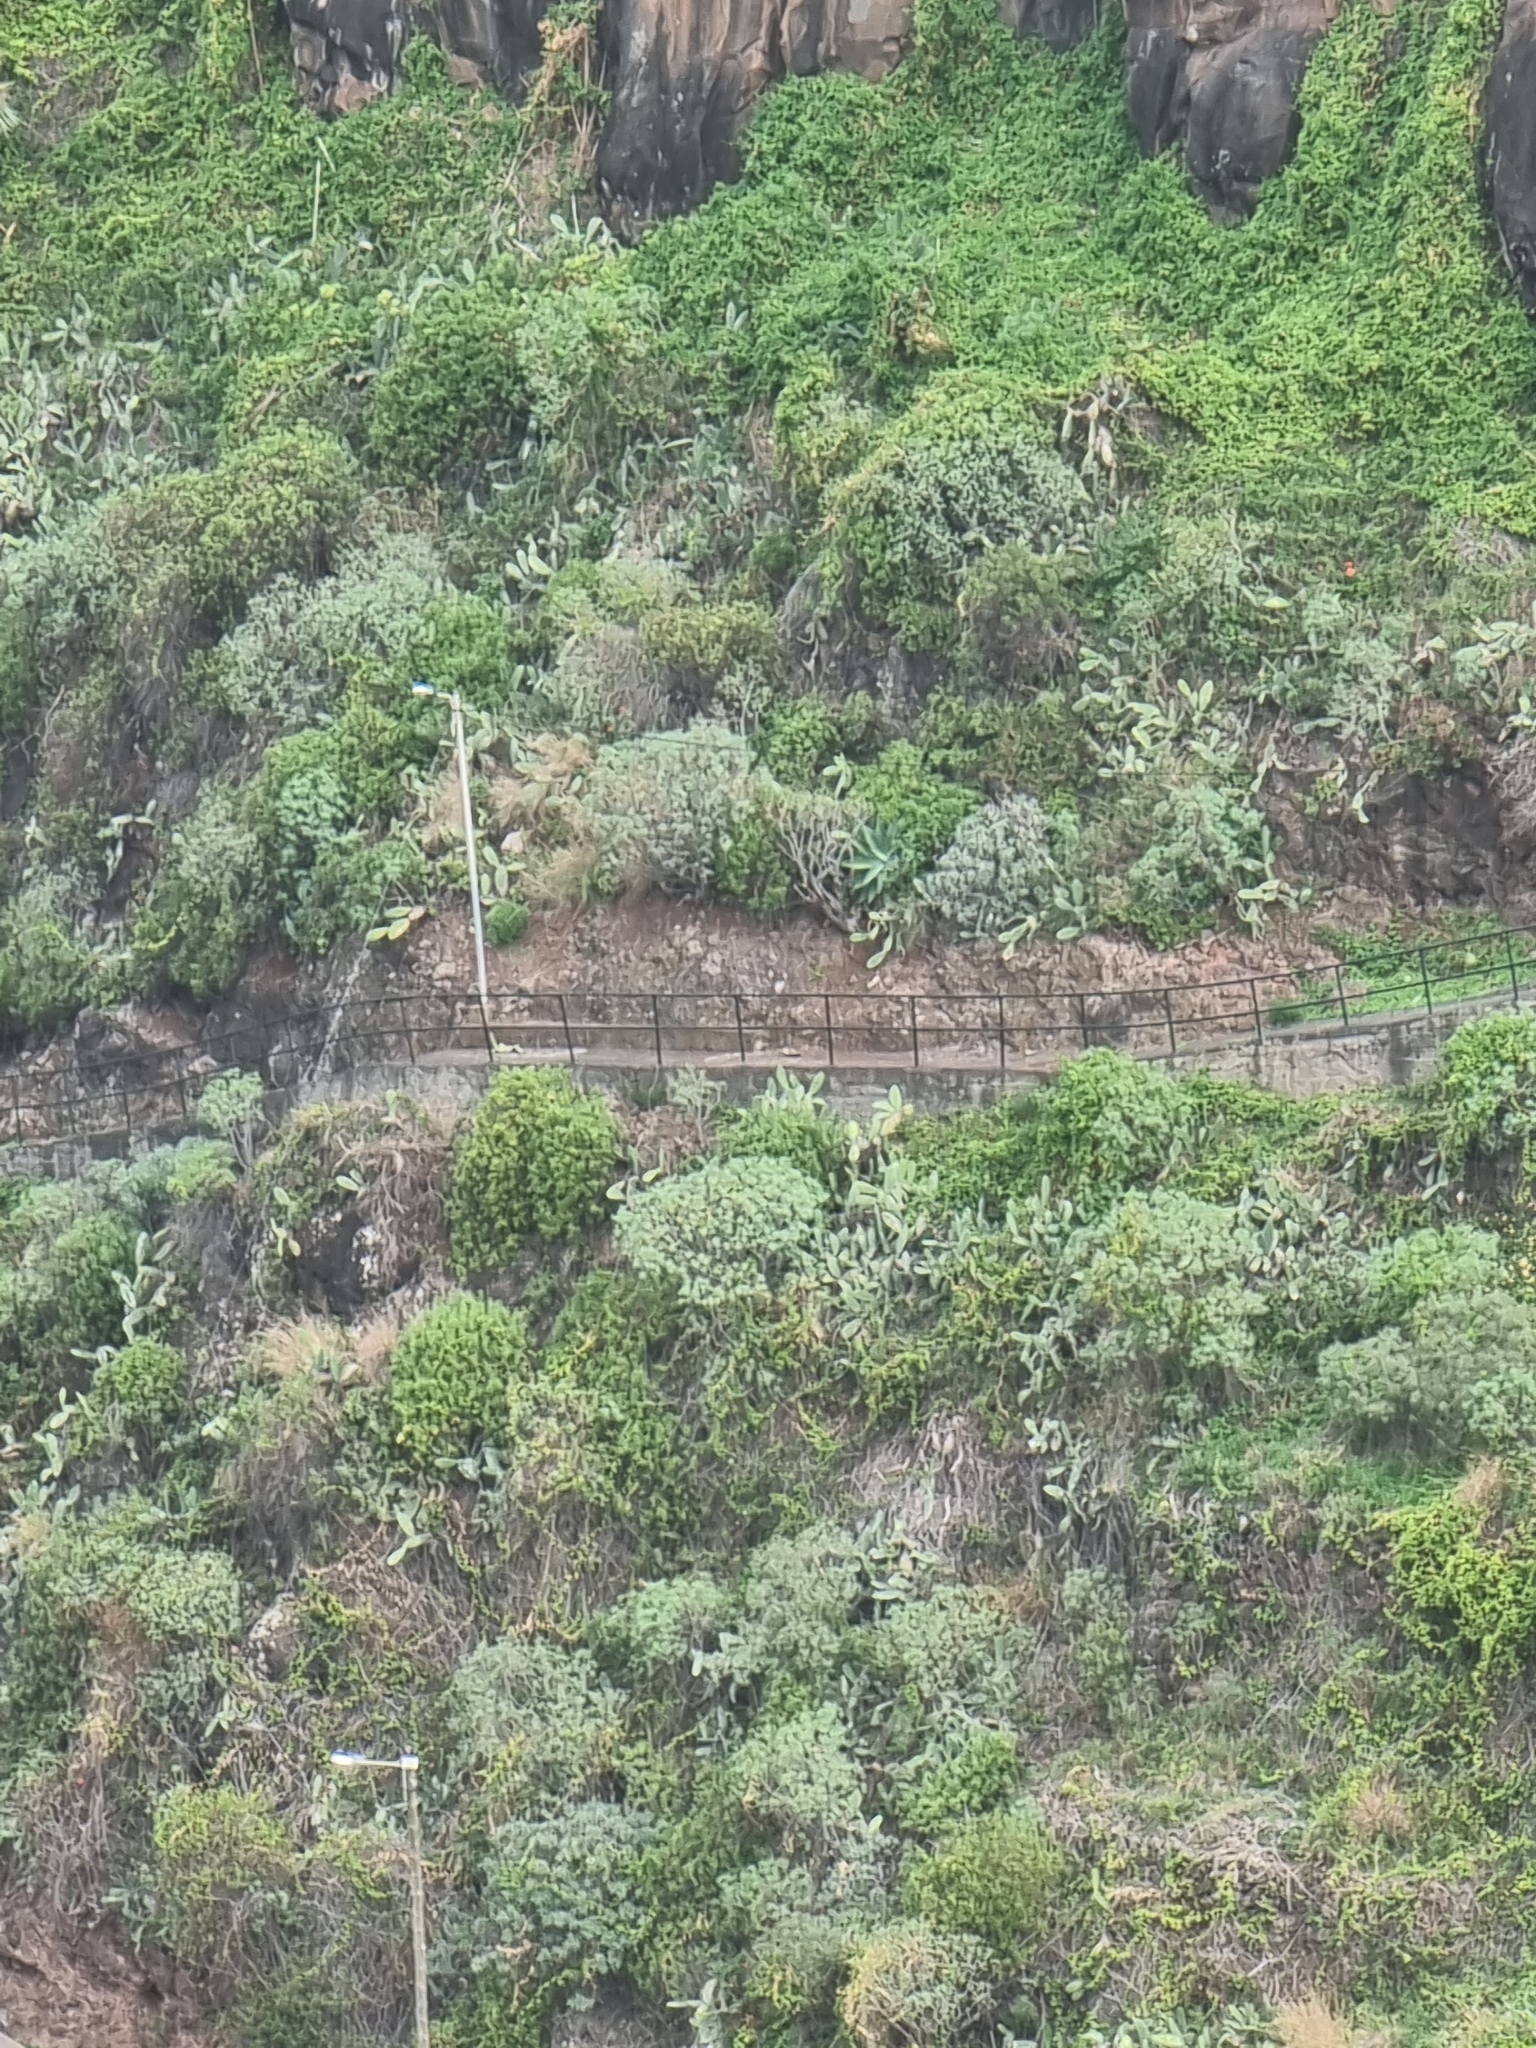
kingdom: Plantae
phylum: Tracheophyta
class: Magnoliopsida
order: Malpighiales
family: Euphorbiaceae
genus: Euphorbia
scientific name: Euphorbia piscatoria
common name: Fish-stunning spurge
